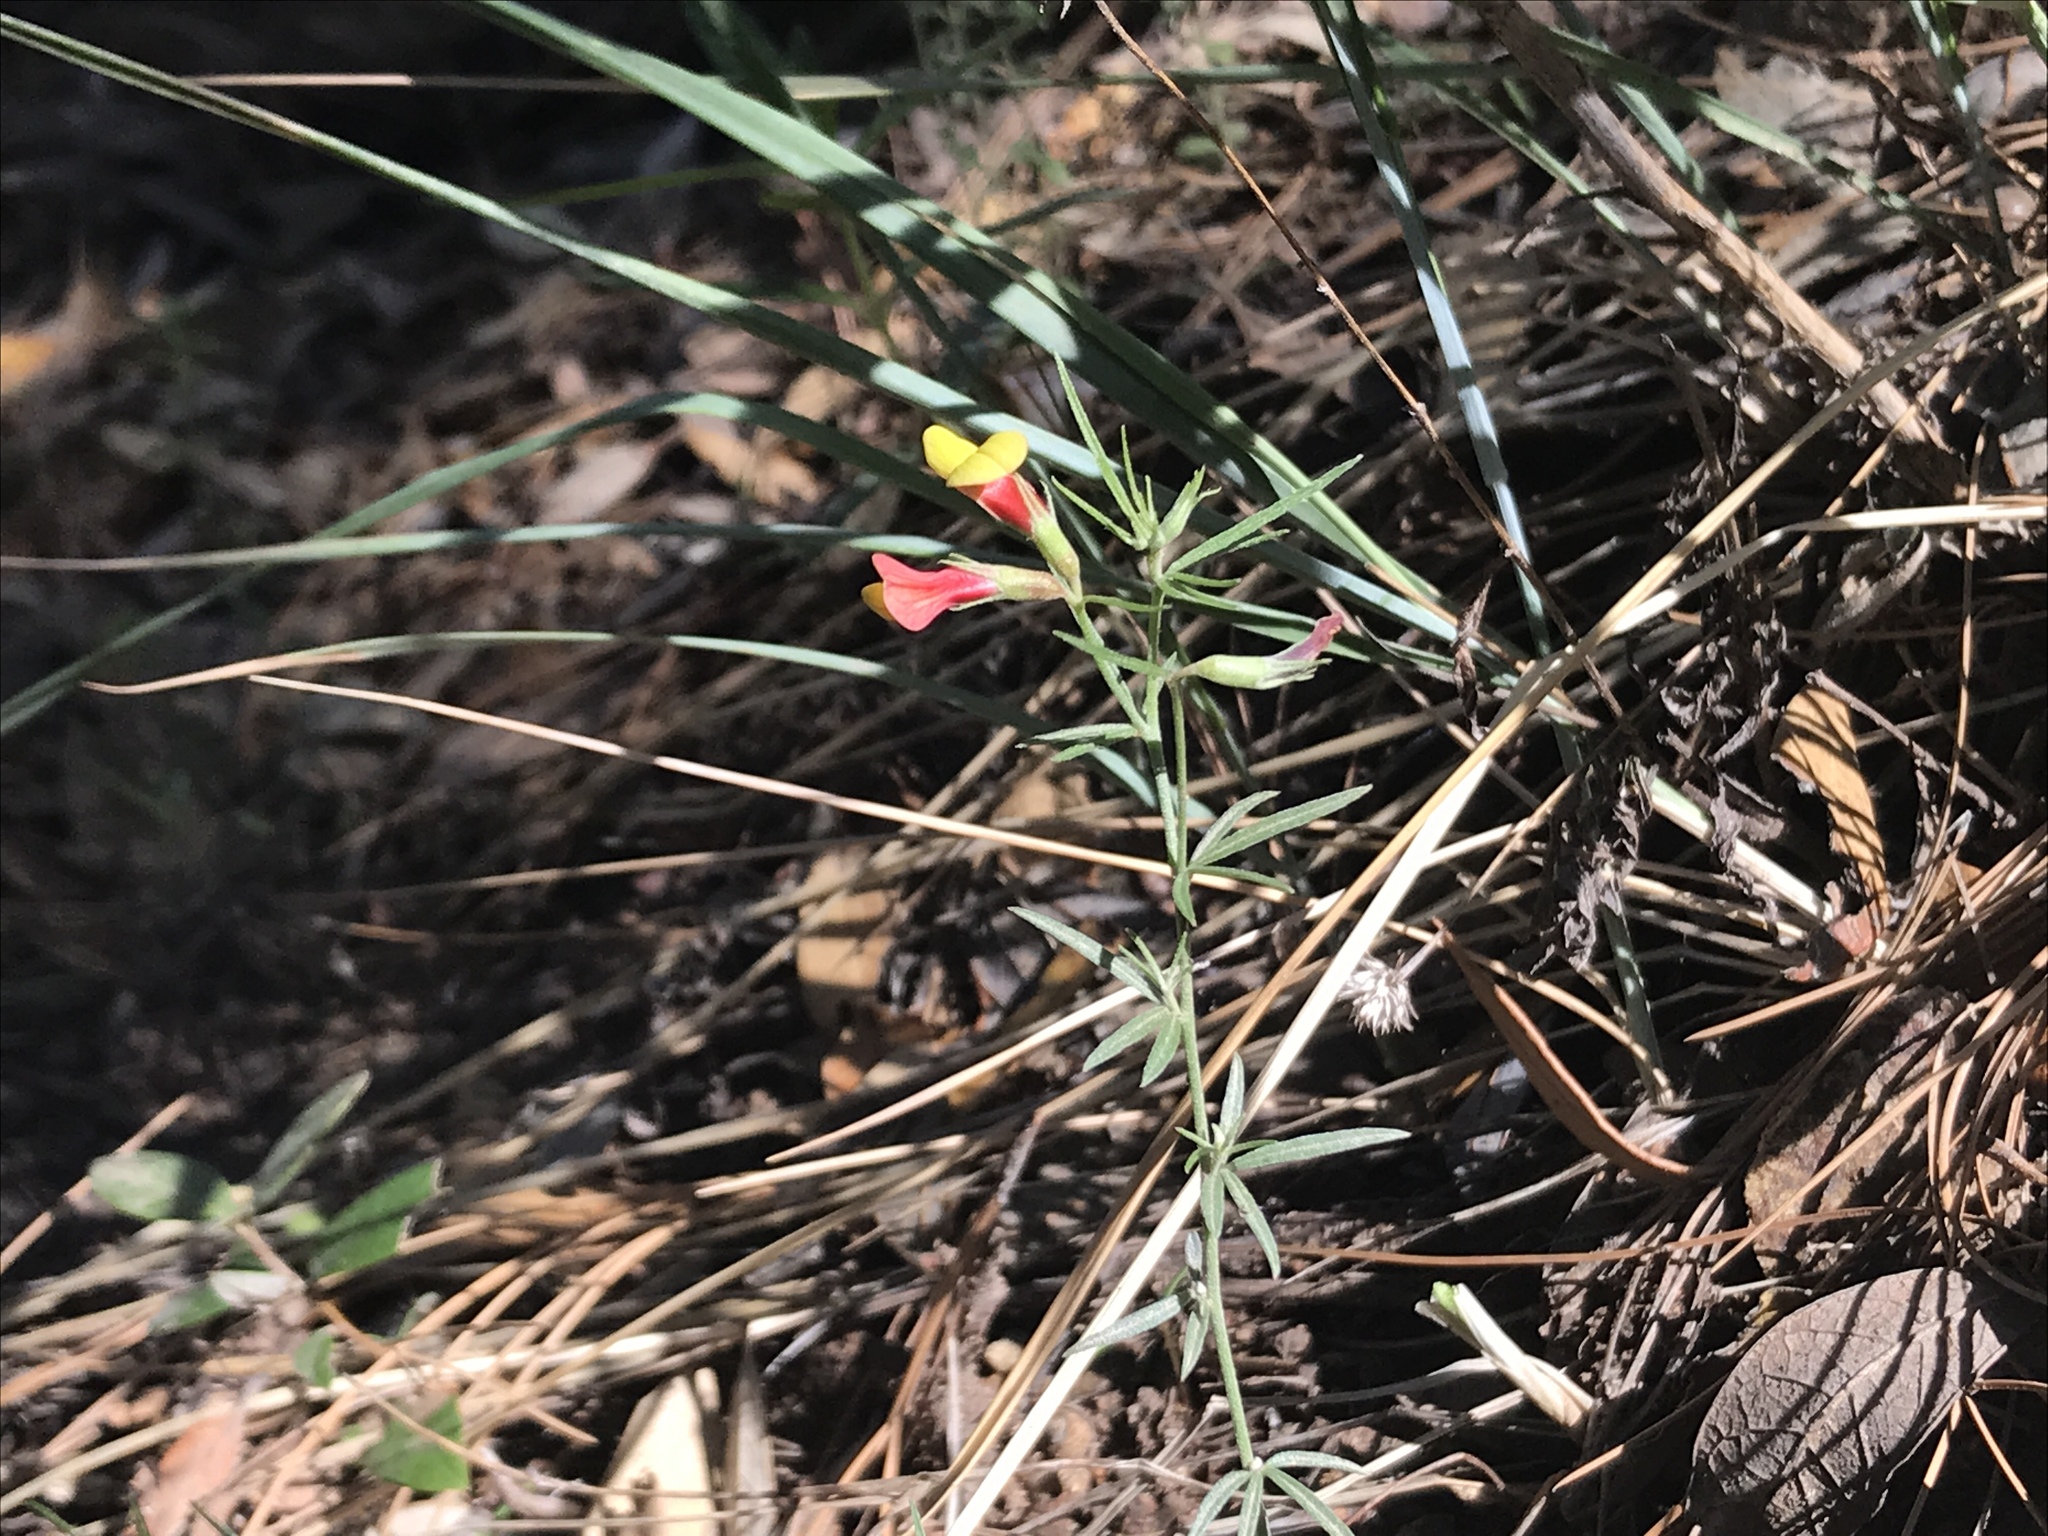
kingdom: Plantae
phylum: Tracheophyta
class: Magnoliopsida
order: Fabales
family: Fabaceae
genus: Acmispon
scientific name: Acmispon oroboides
